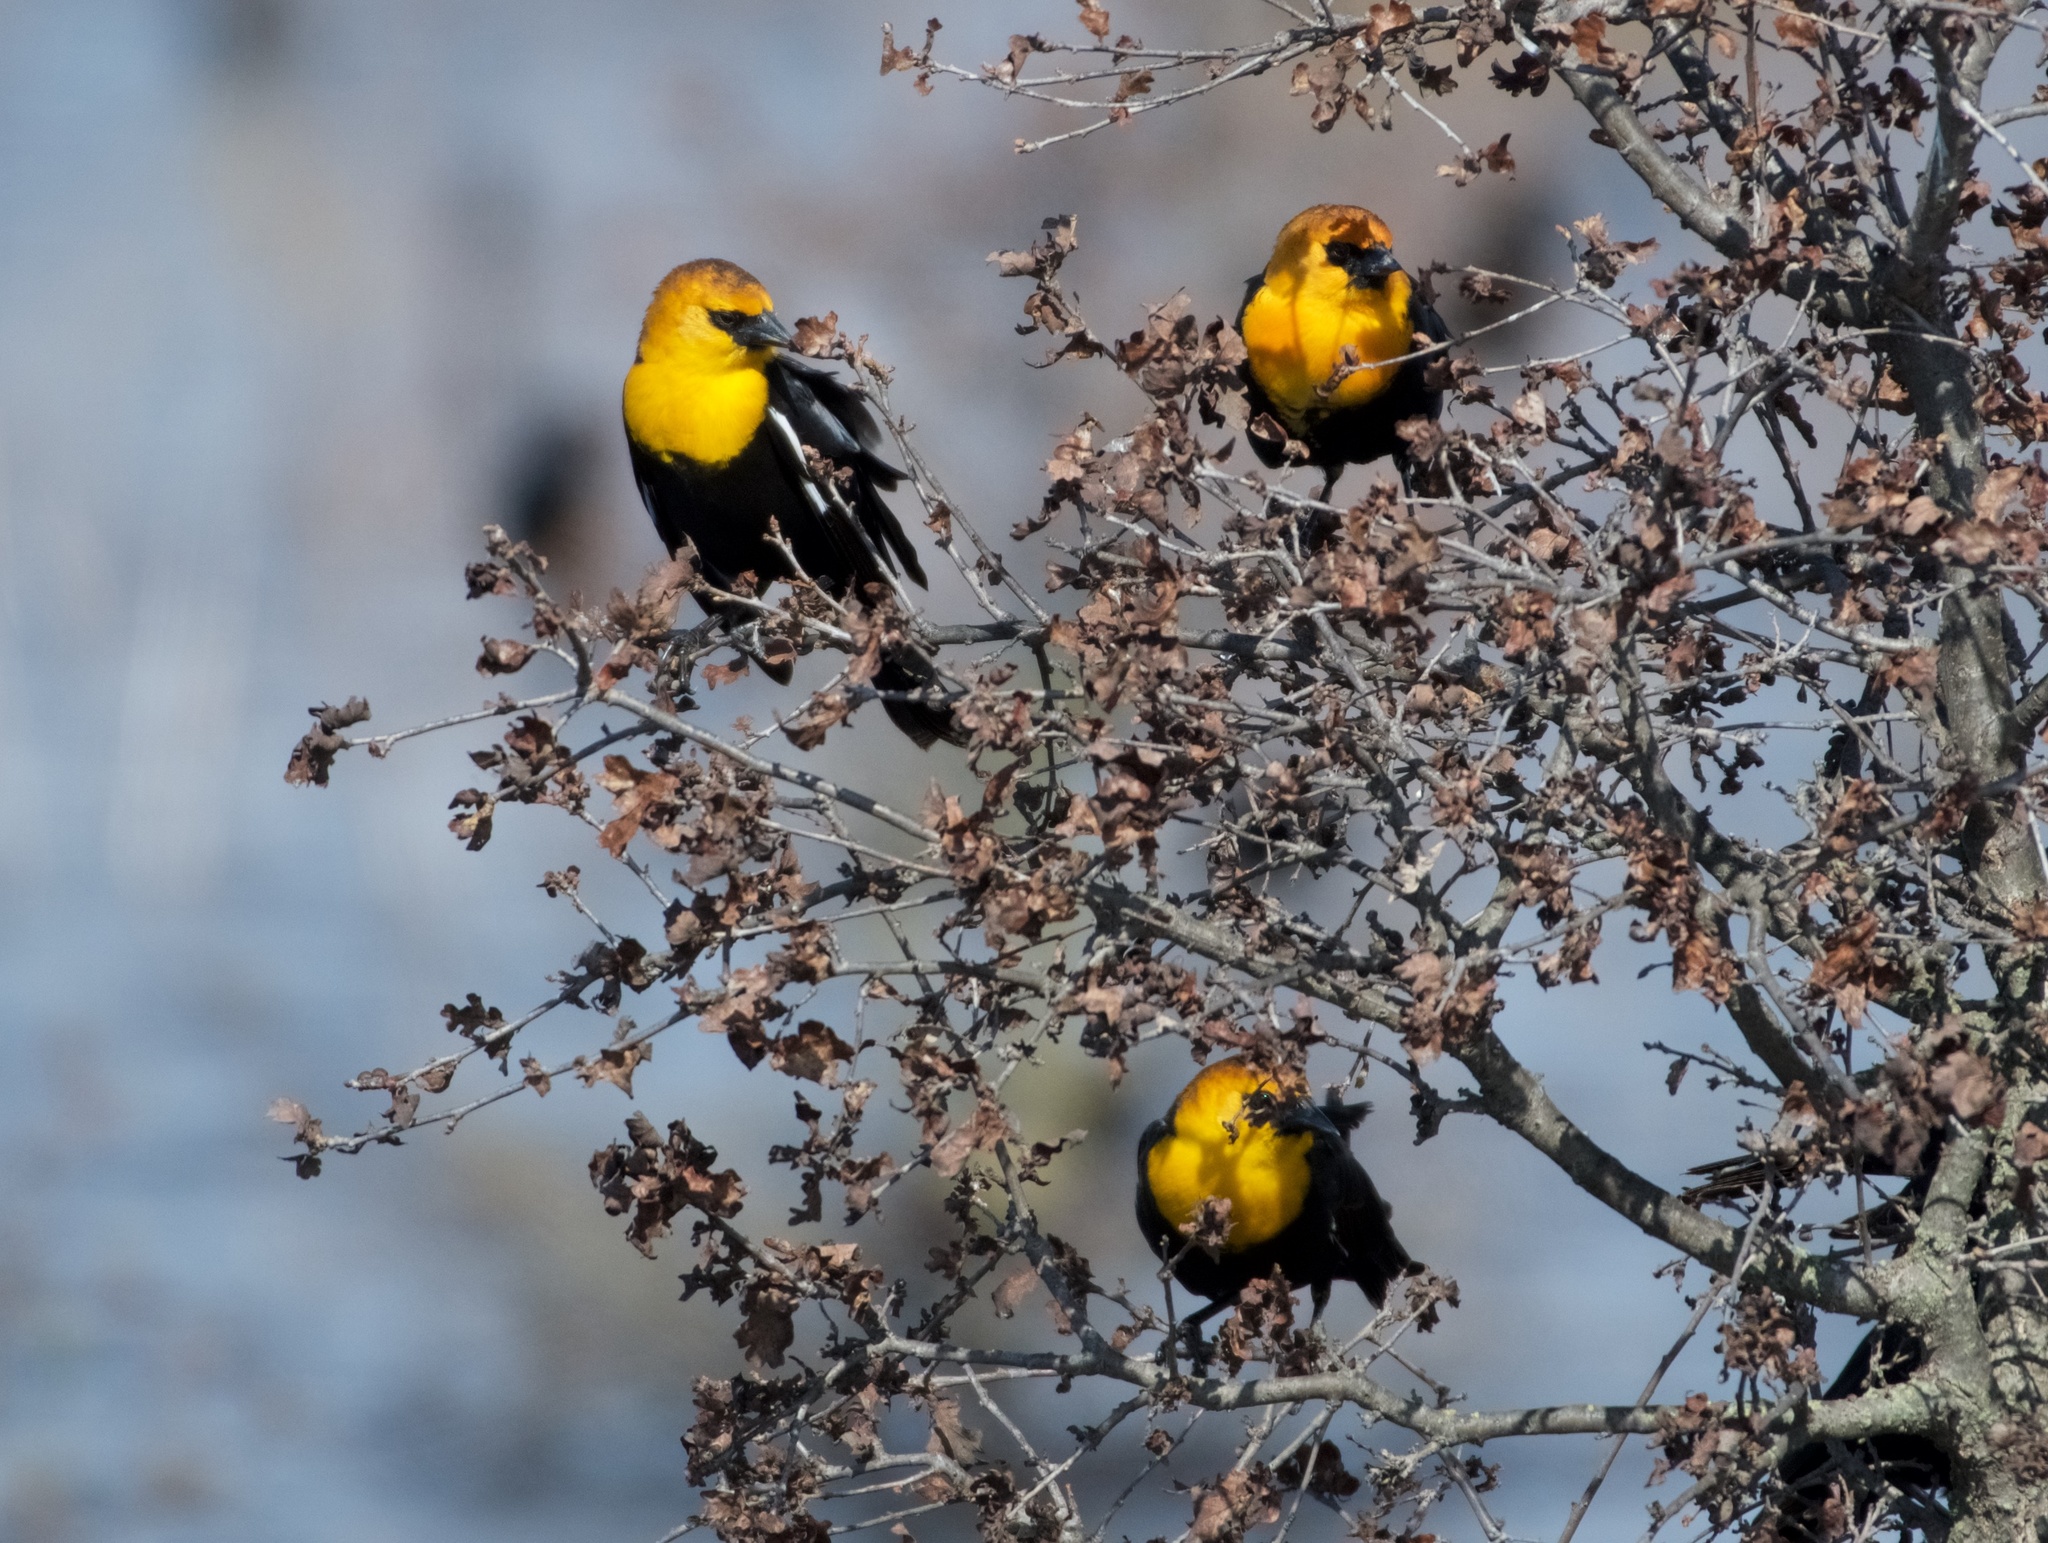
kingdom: Animalia
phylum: Chordata
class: Aves
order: Passeriformes
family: Icteridae
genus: Xanthocephalus
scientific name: Xanthocephalus xanthocephalus
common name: Yellow-headed blackbird
